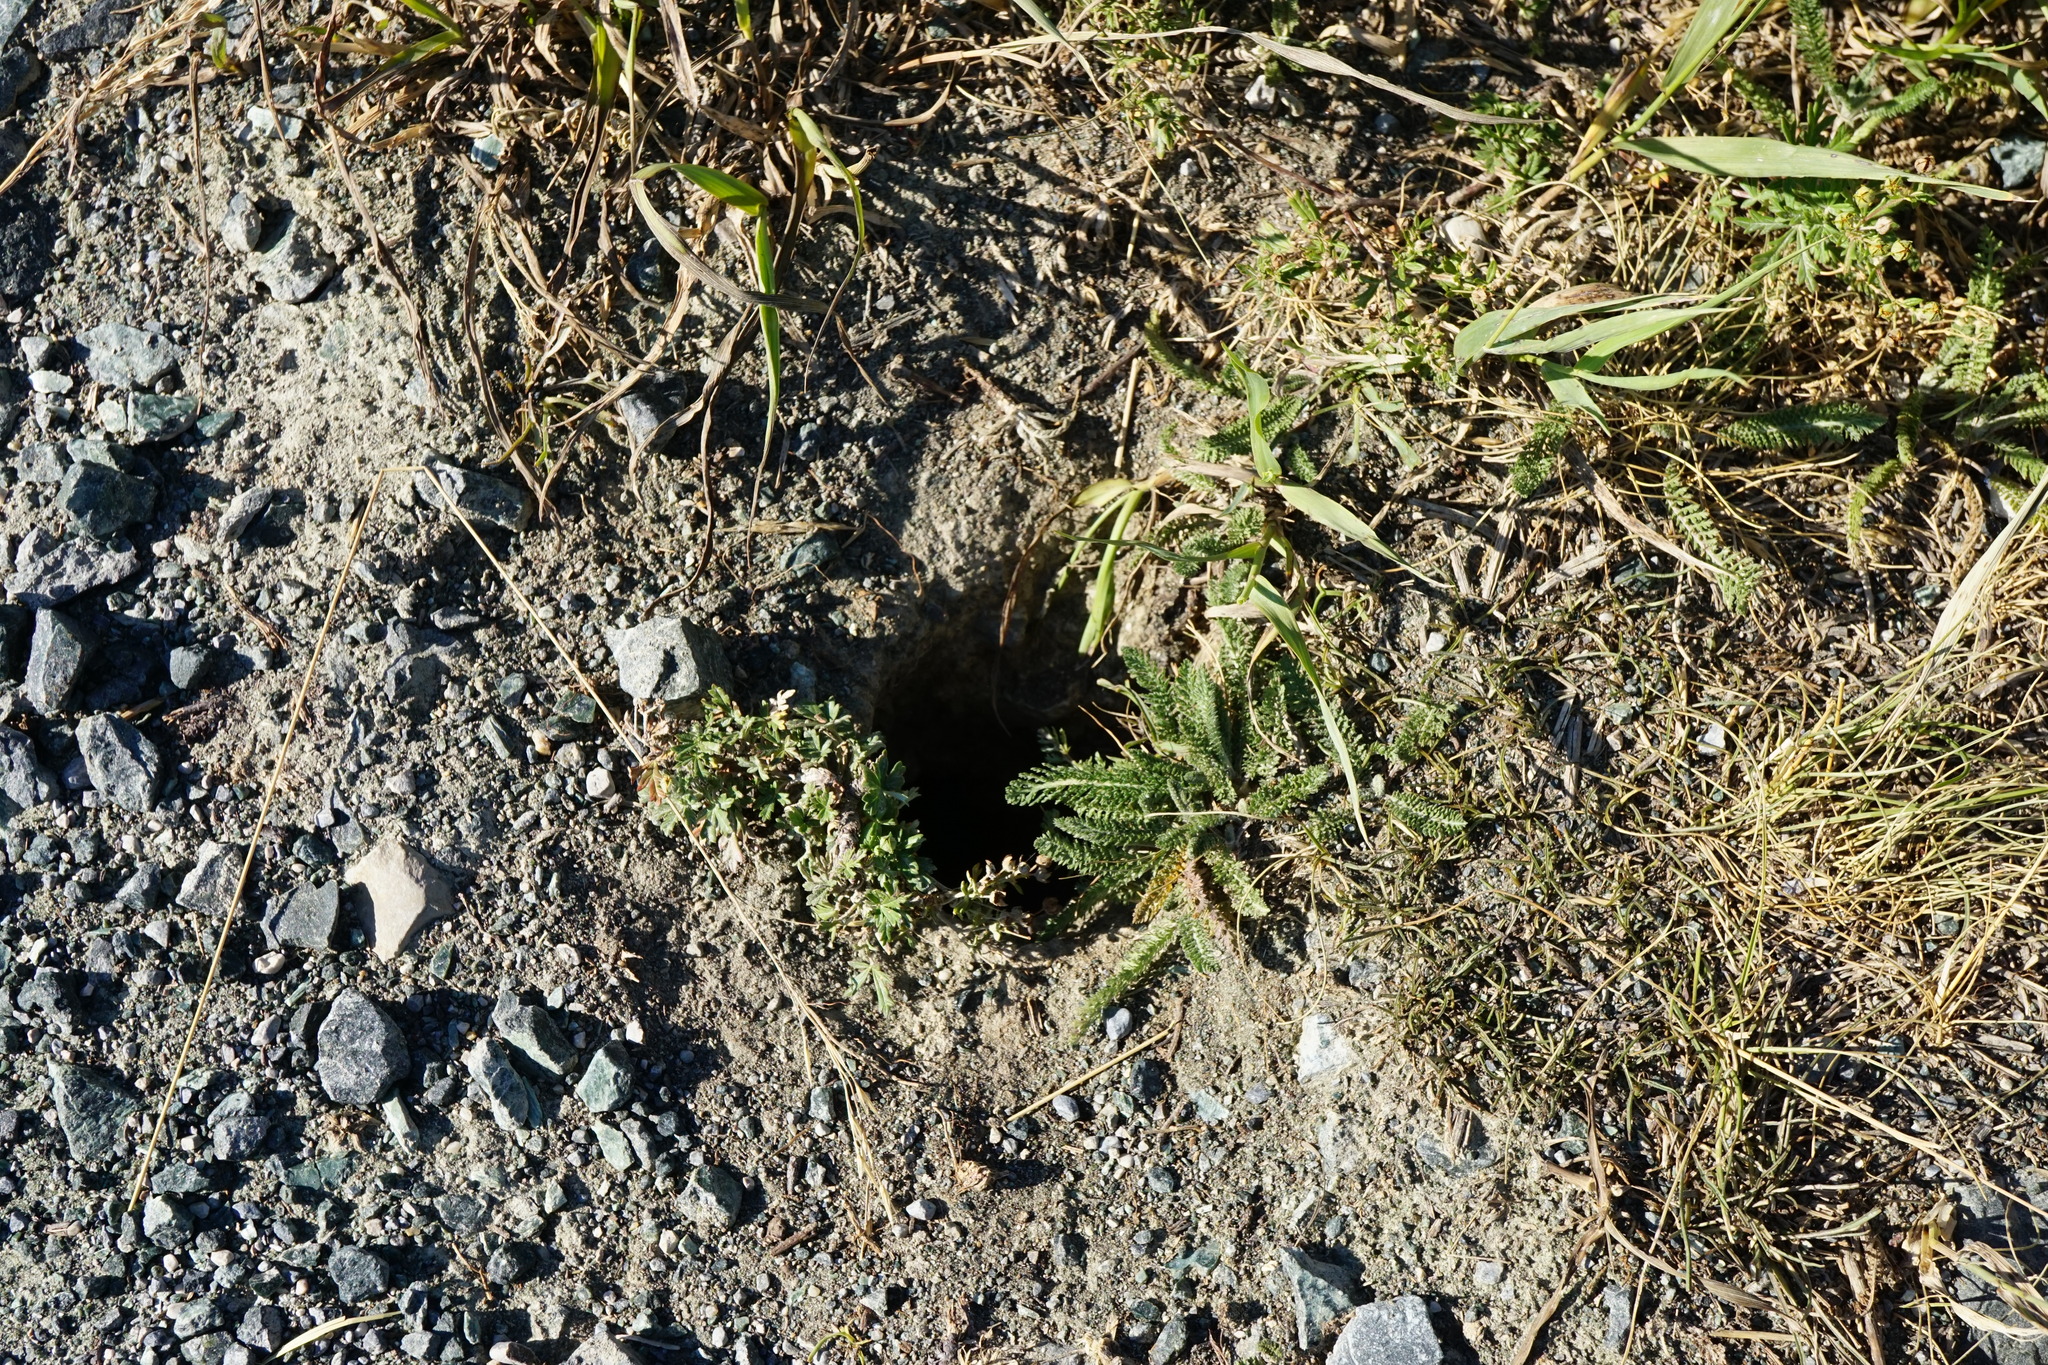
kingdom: Animalia
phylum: Chordata
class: Mammalia
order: Rodentia
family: Sciuridae
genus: Spermophilus
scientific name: Spermophilus citellus
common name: European ground squirrel
